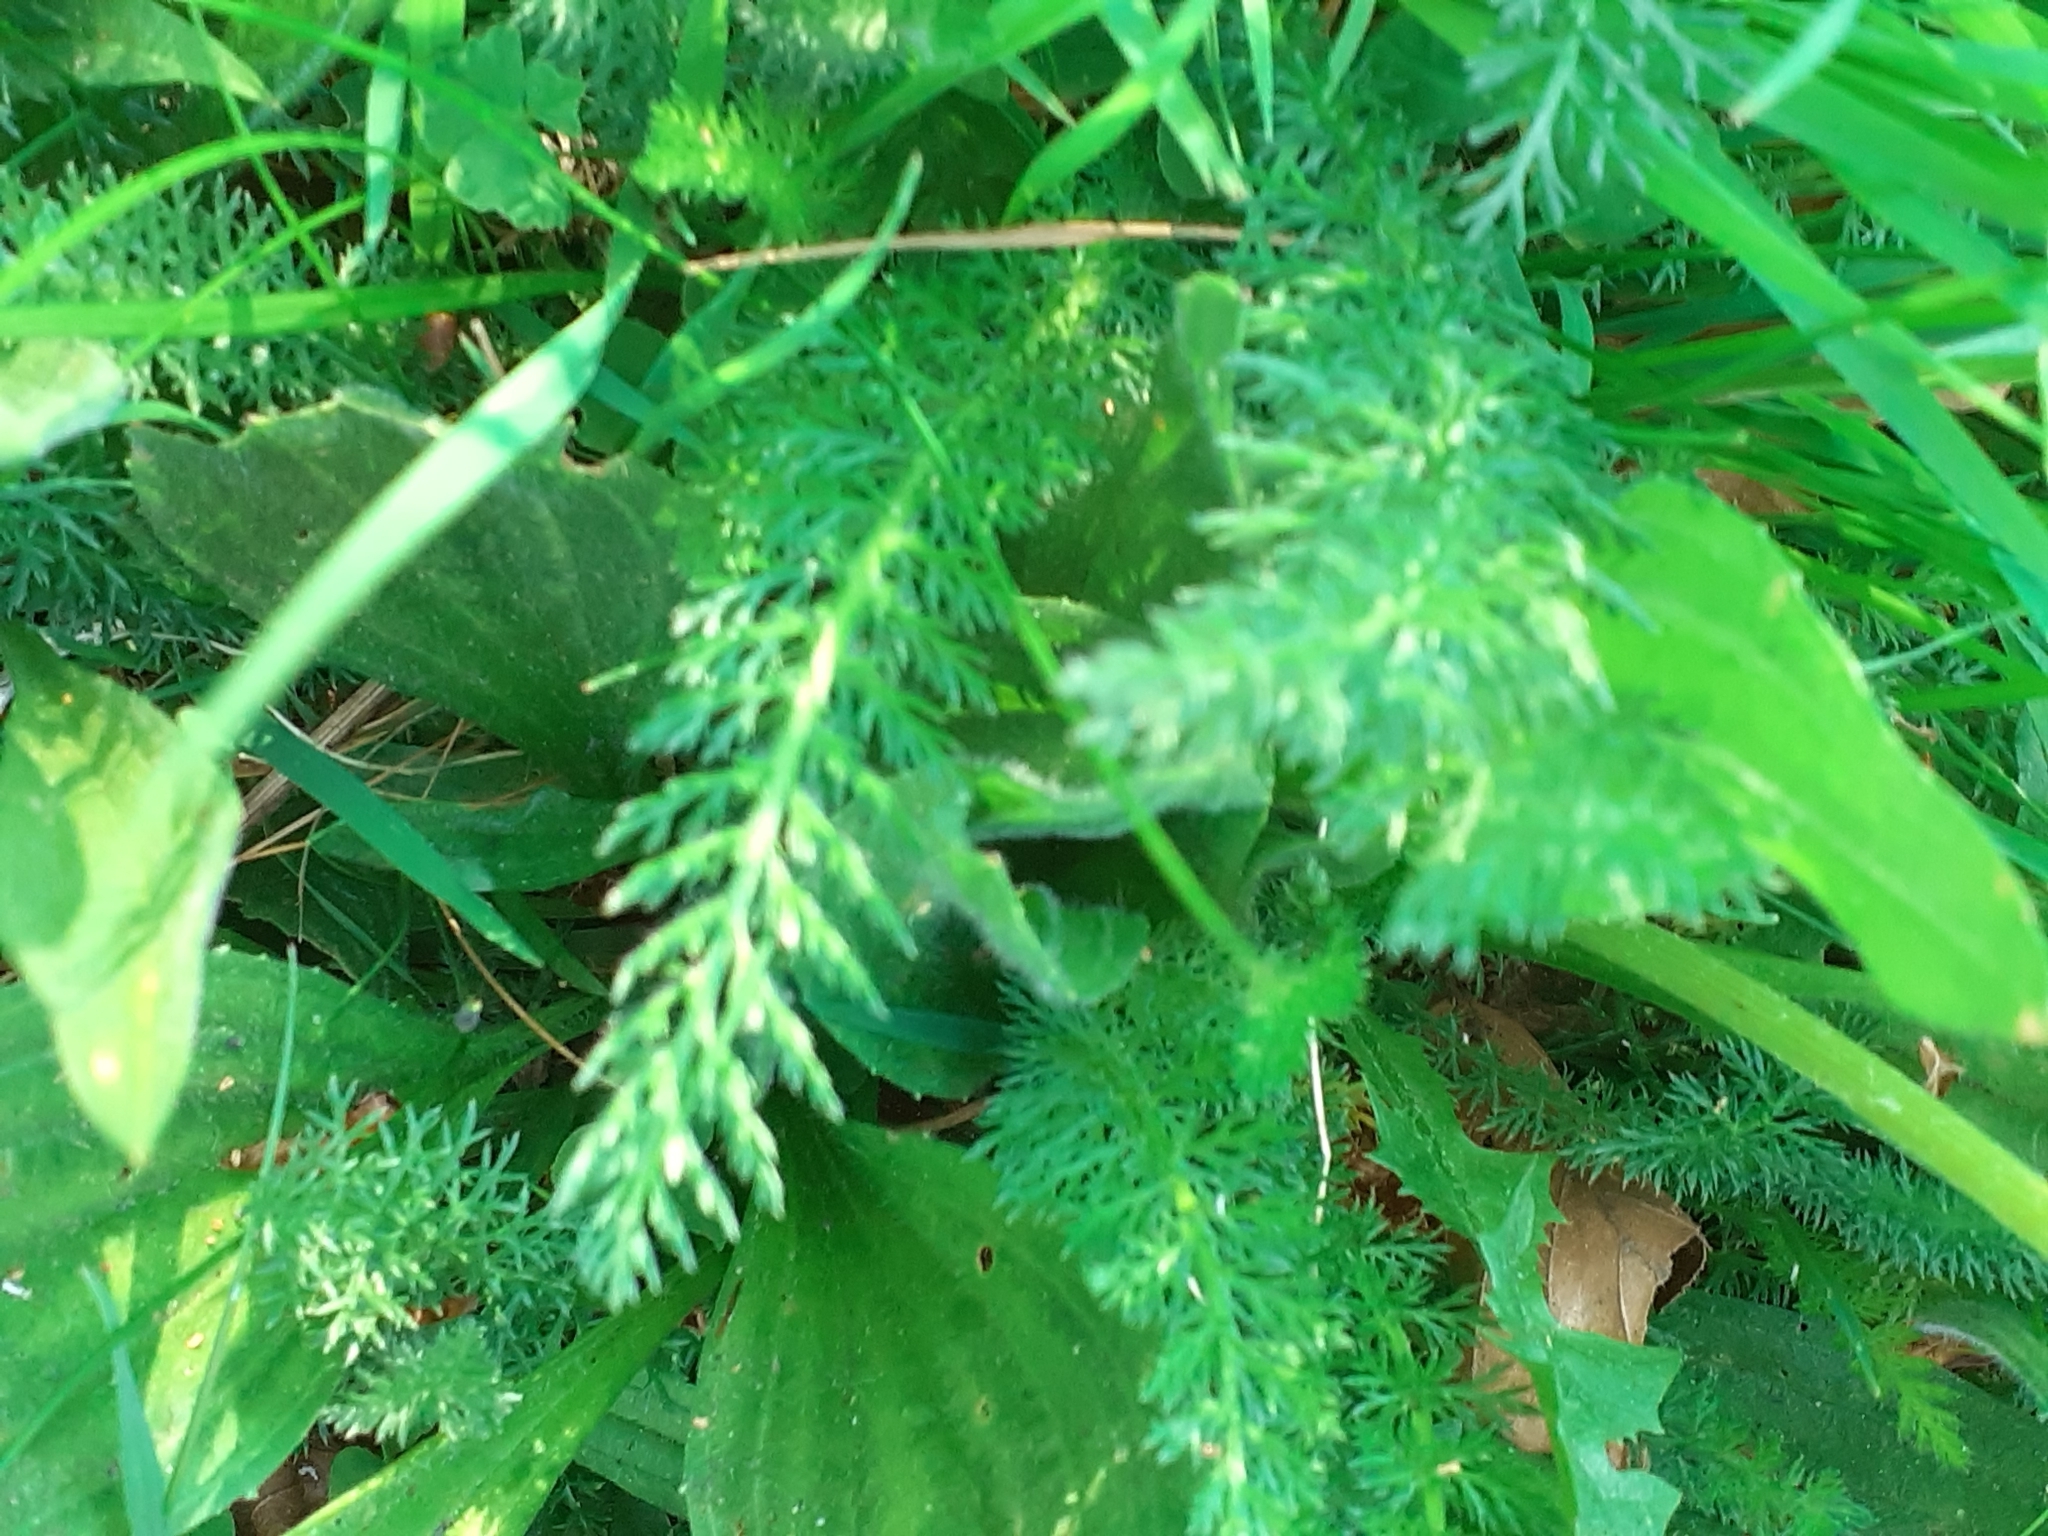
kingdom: Plantae
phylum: Tracheophyta
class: Magnoliopsida
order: Asterales
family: Asteraceae
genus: Achillea
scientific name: Achillea millefolium
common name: Yarrow
